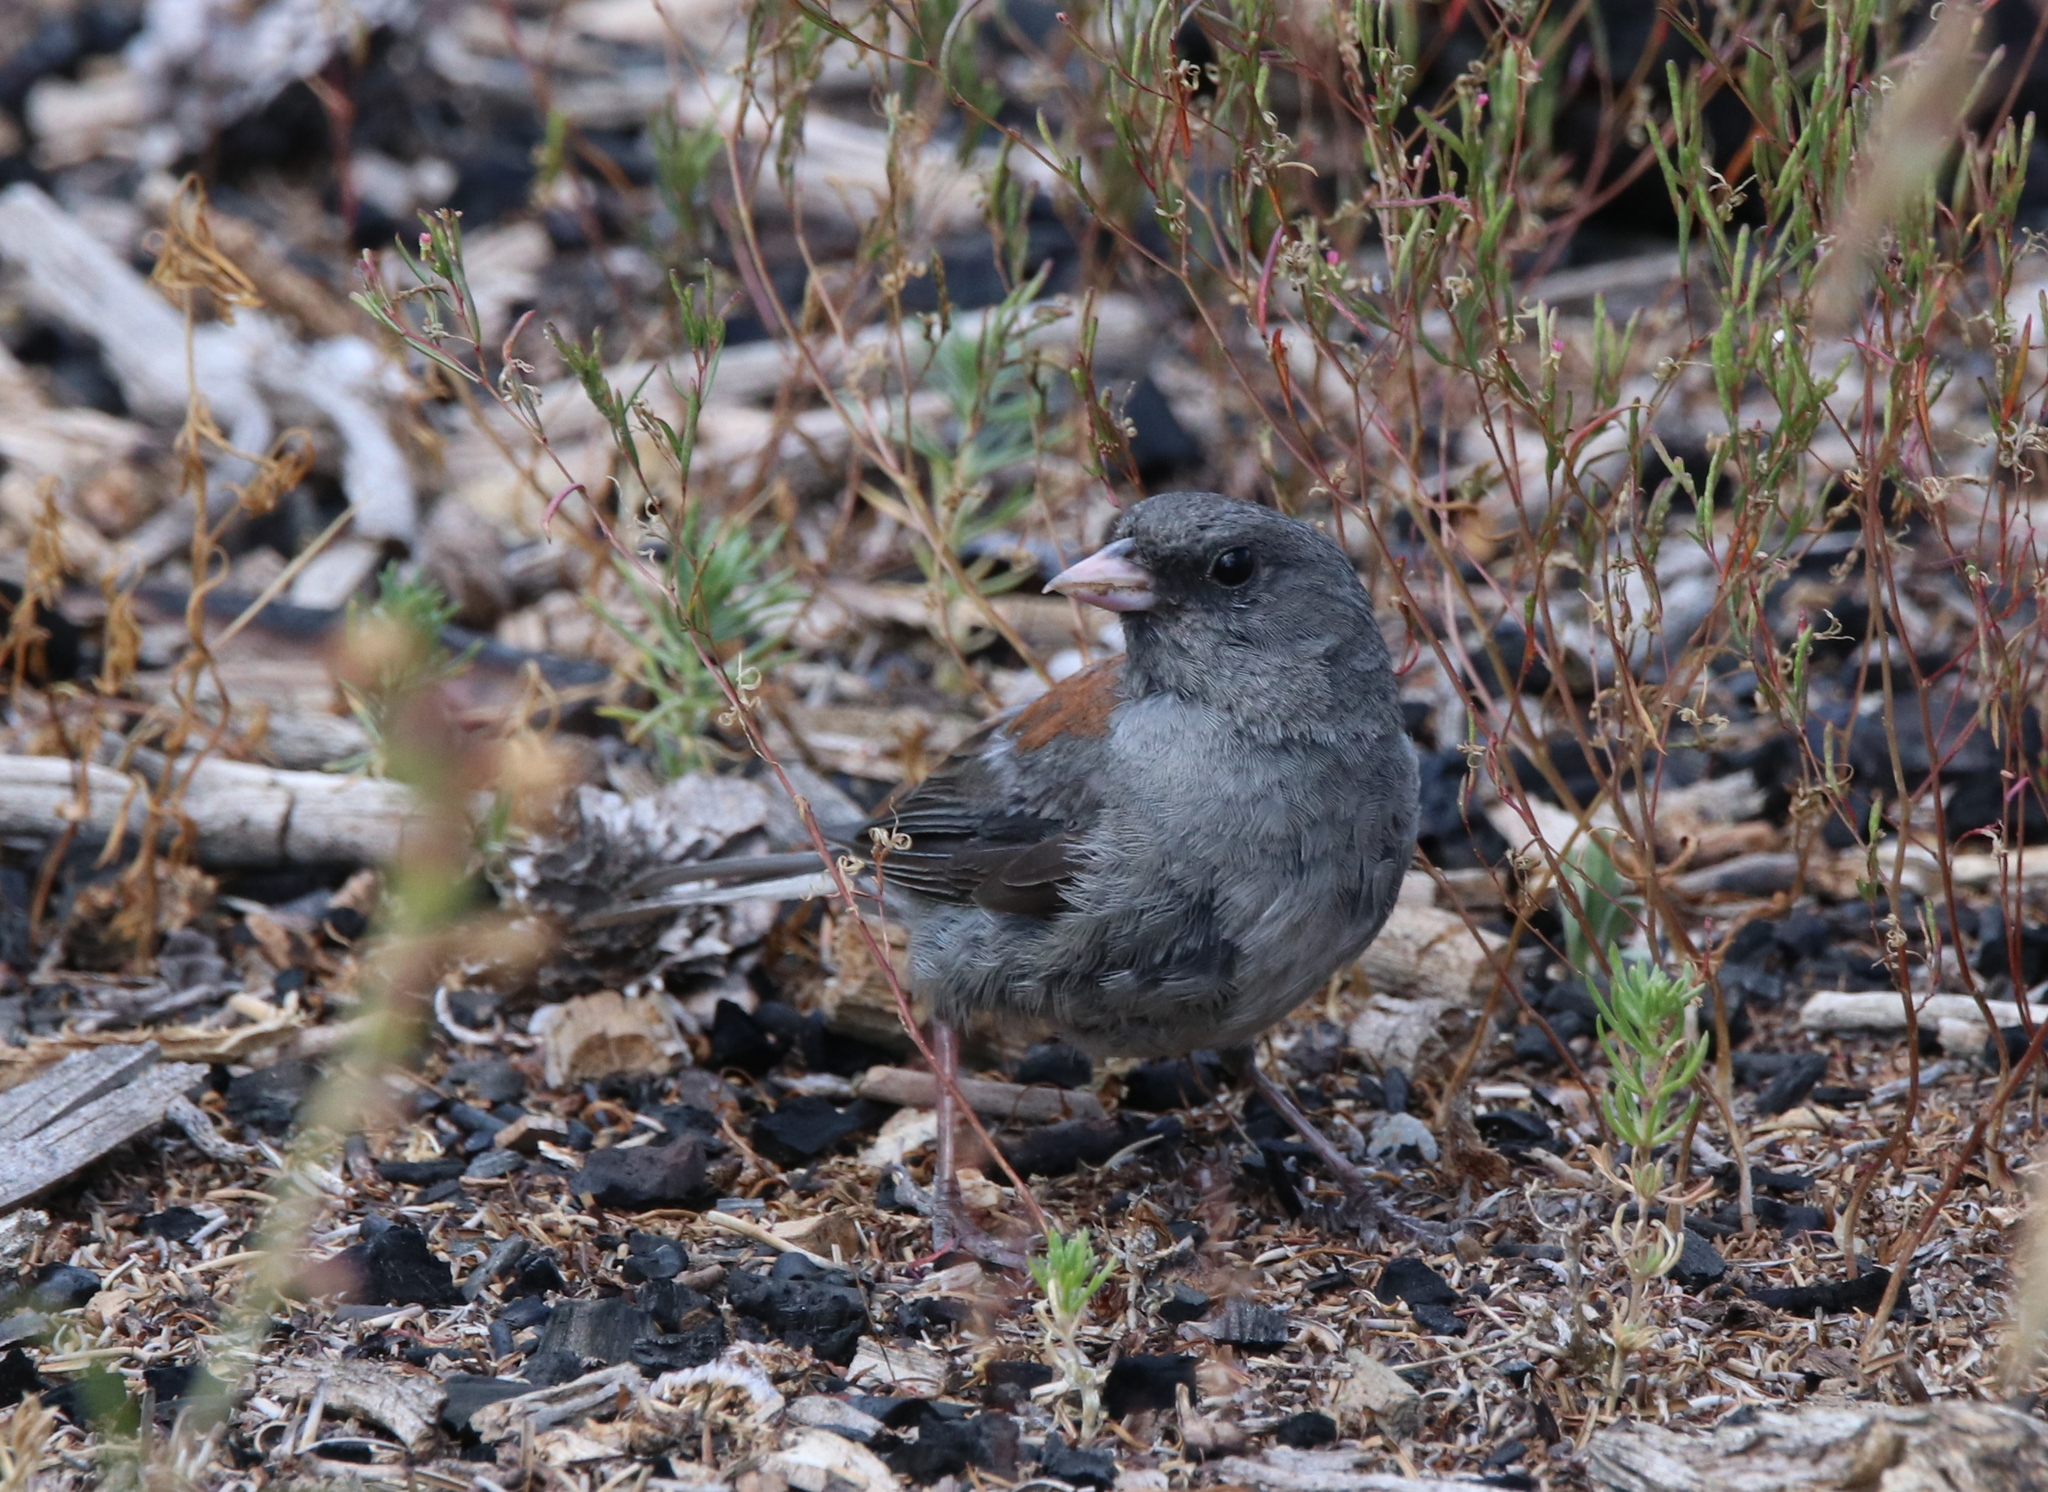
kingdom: Animalia
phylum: Chordata
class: Aves
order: Passeriformes
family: Passerellidae
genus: Junco
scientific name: Junco hyemalis
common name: Dark-eyed junco
